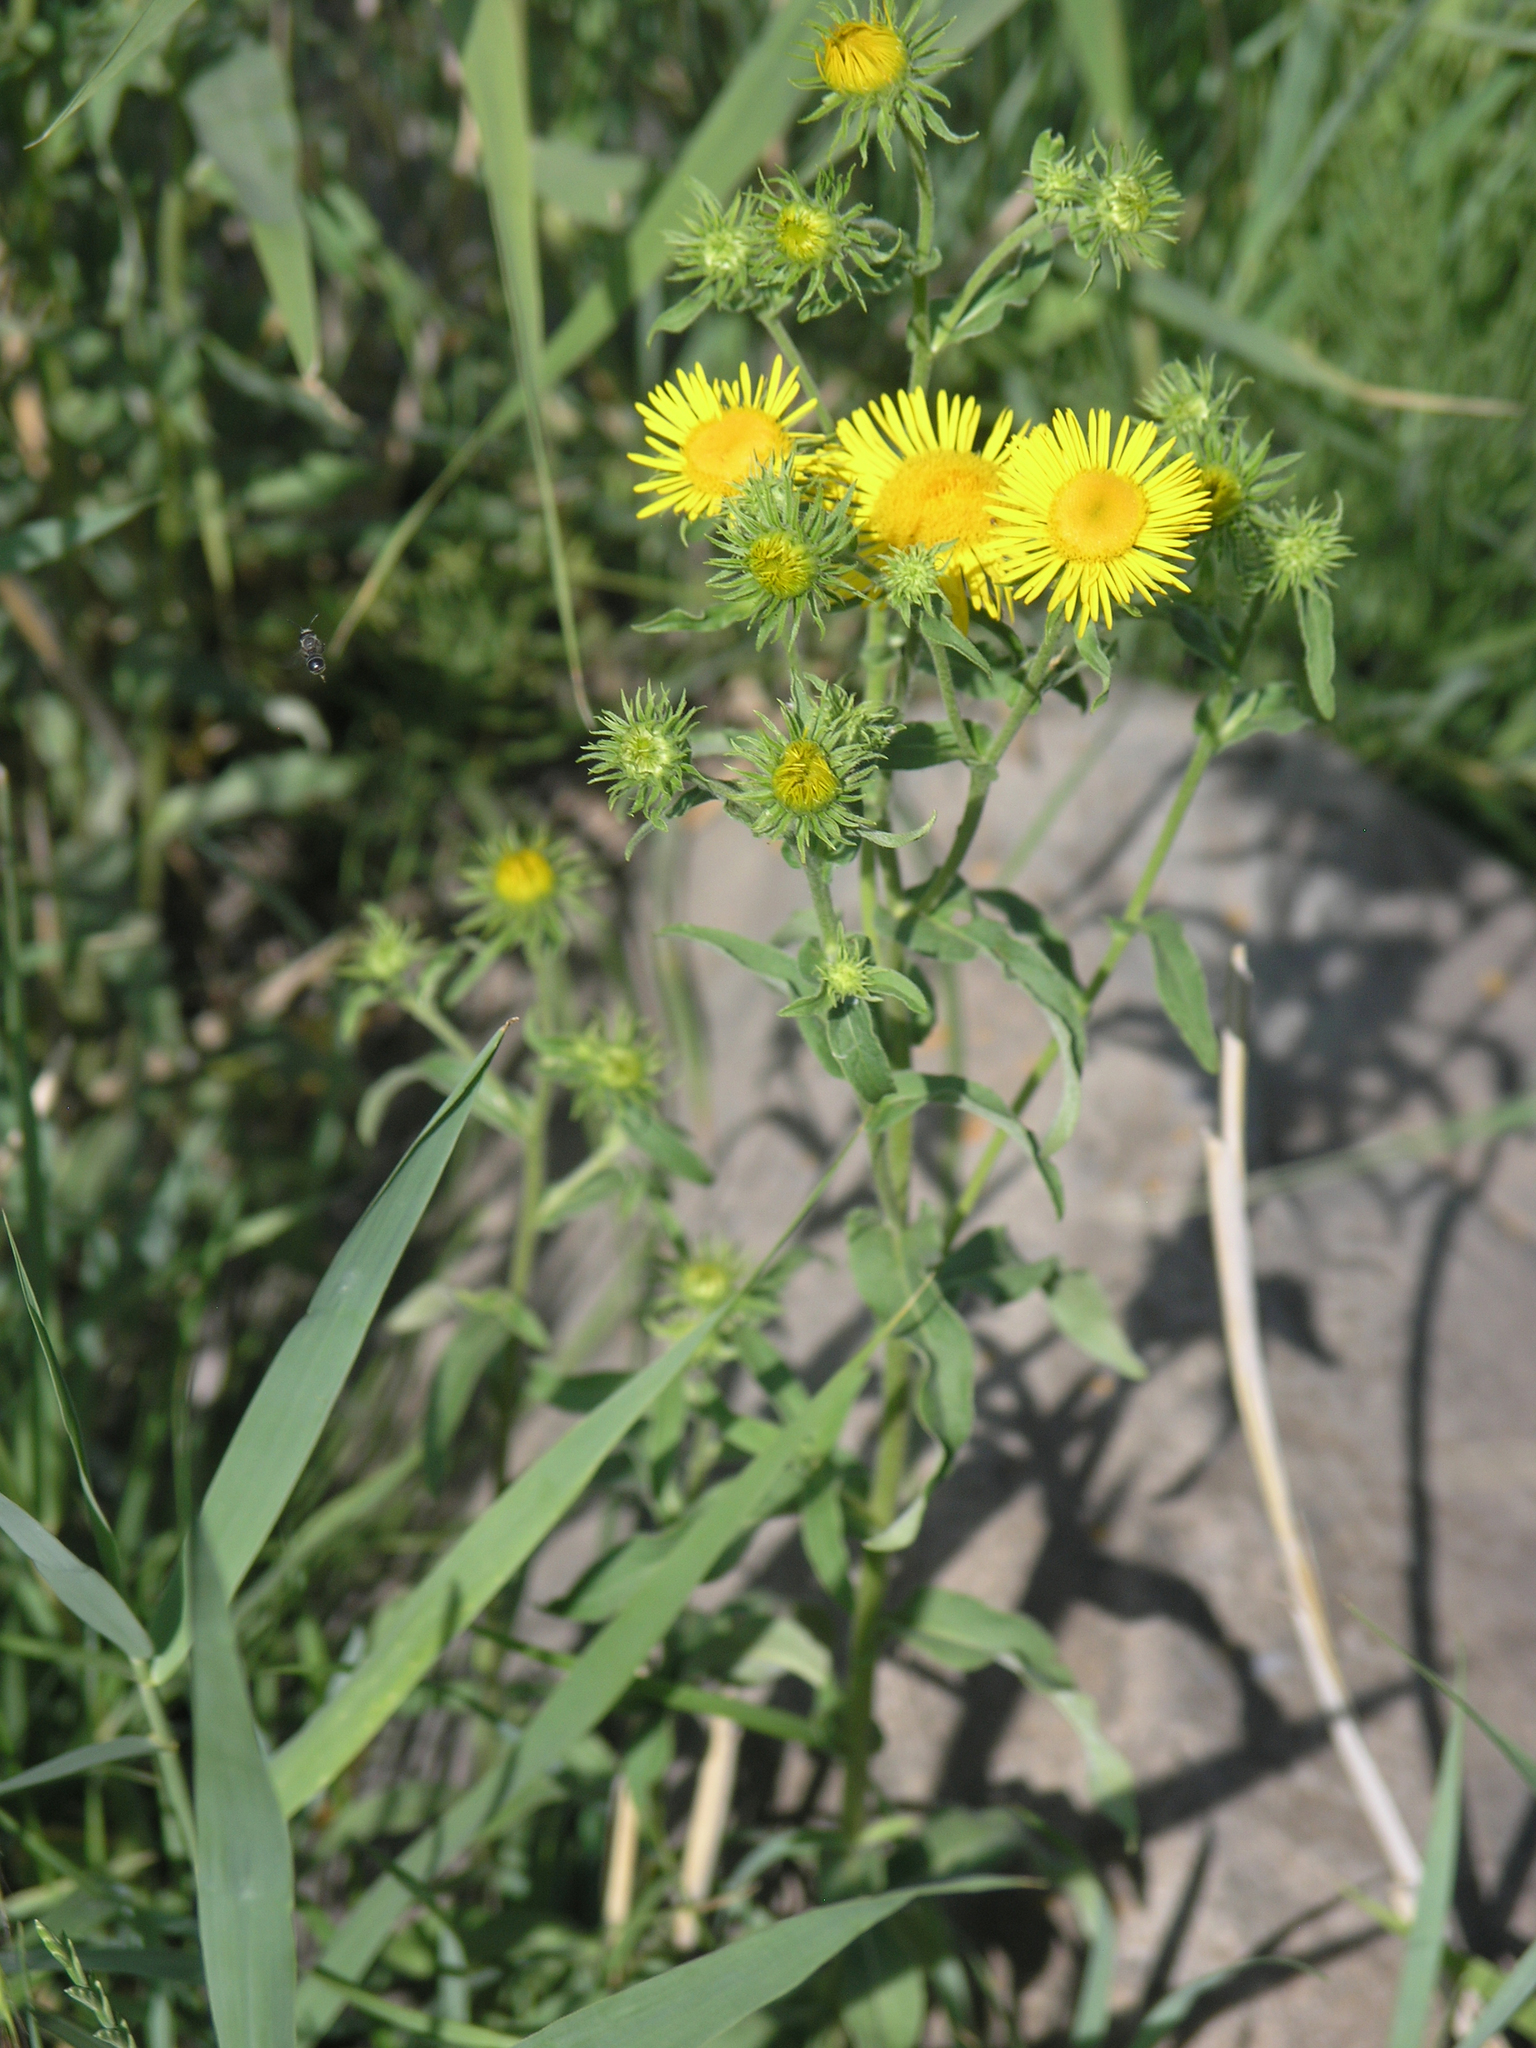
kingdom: Plantae
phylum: Tracheophyta
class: Magnoliopsida
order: Asterales
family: Asteraceae
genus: Pentanema
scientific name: Pentanema britannicum
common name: British elecampane
